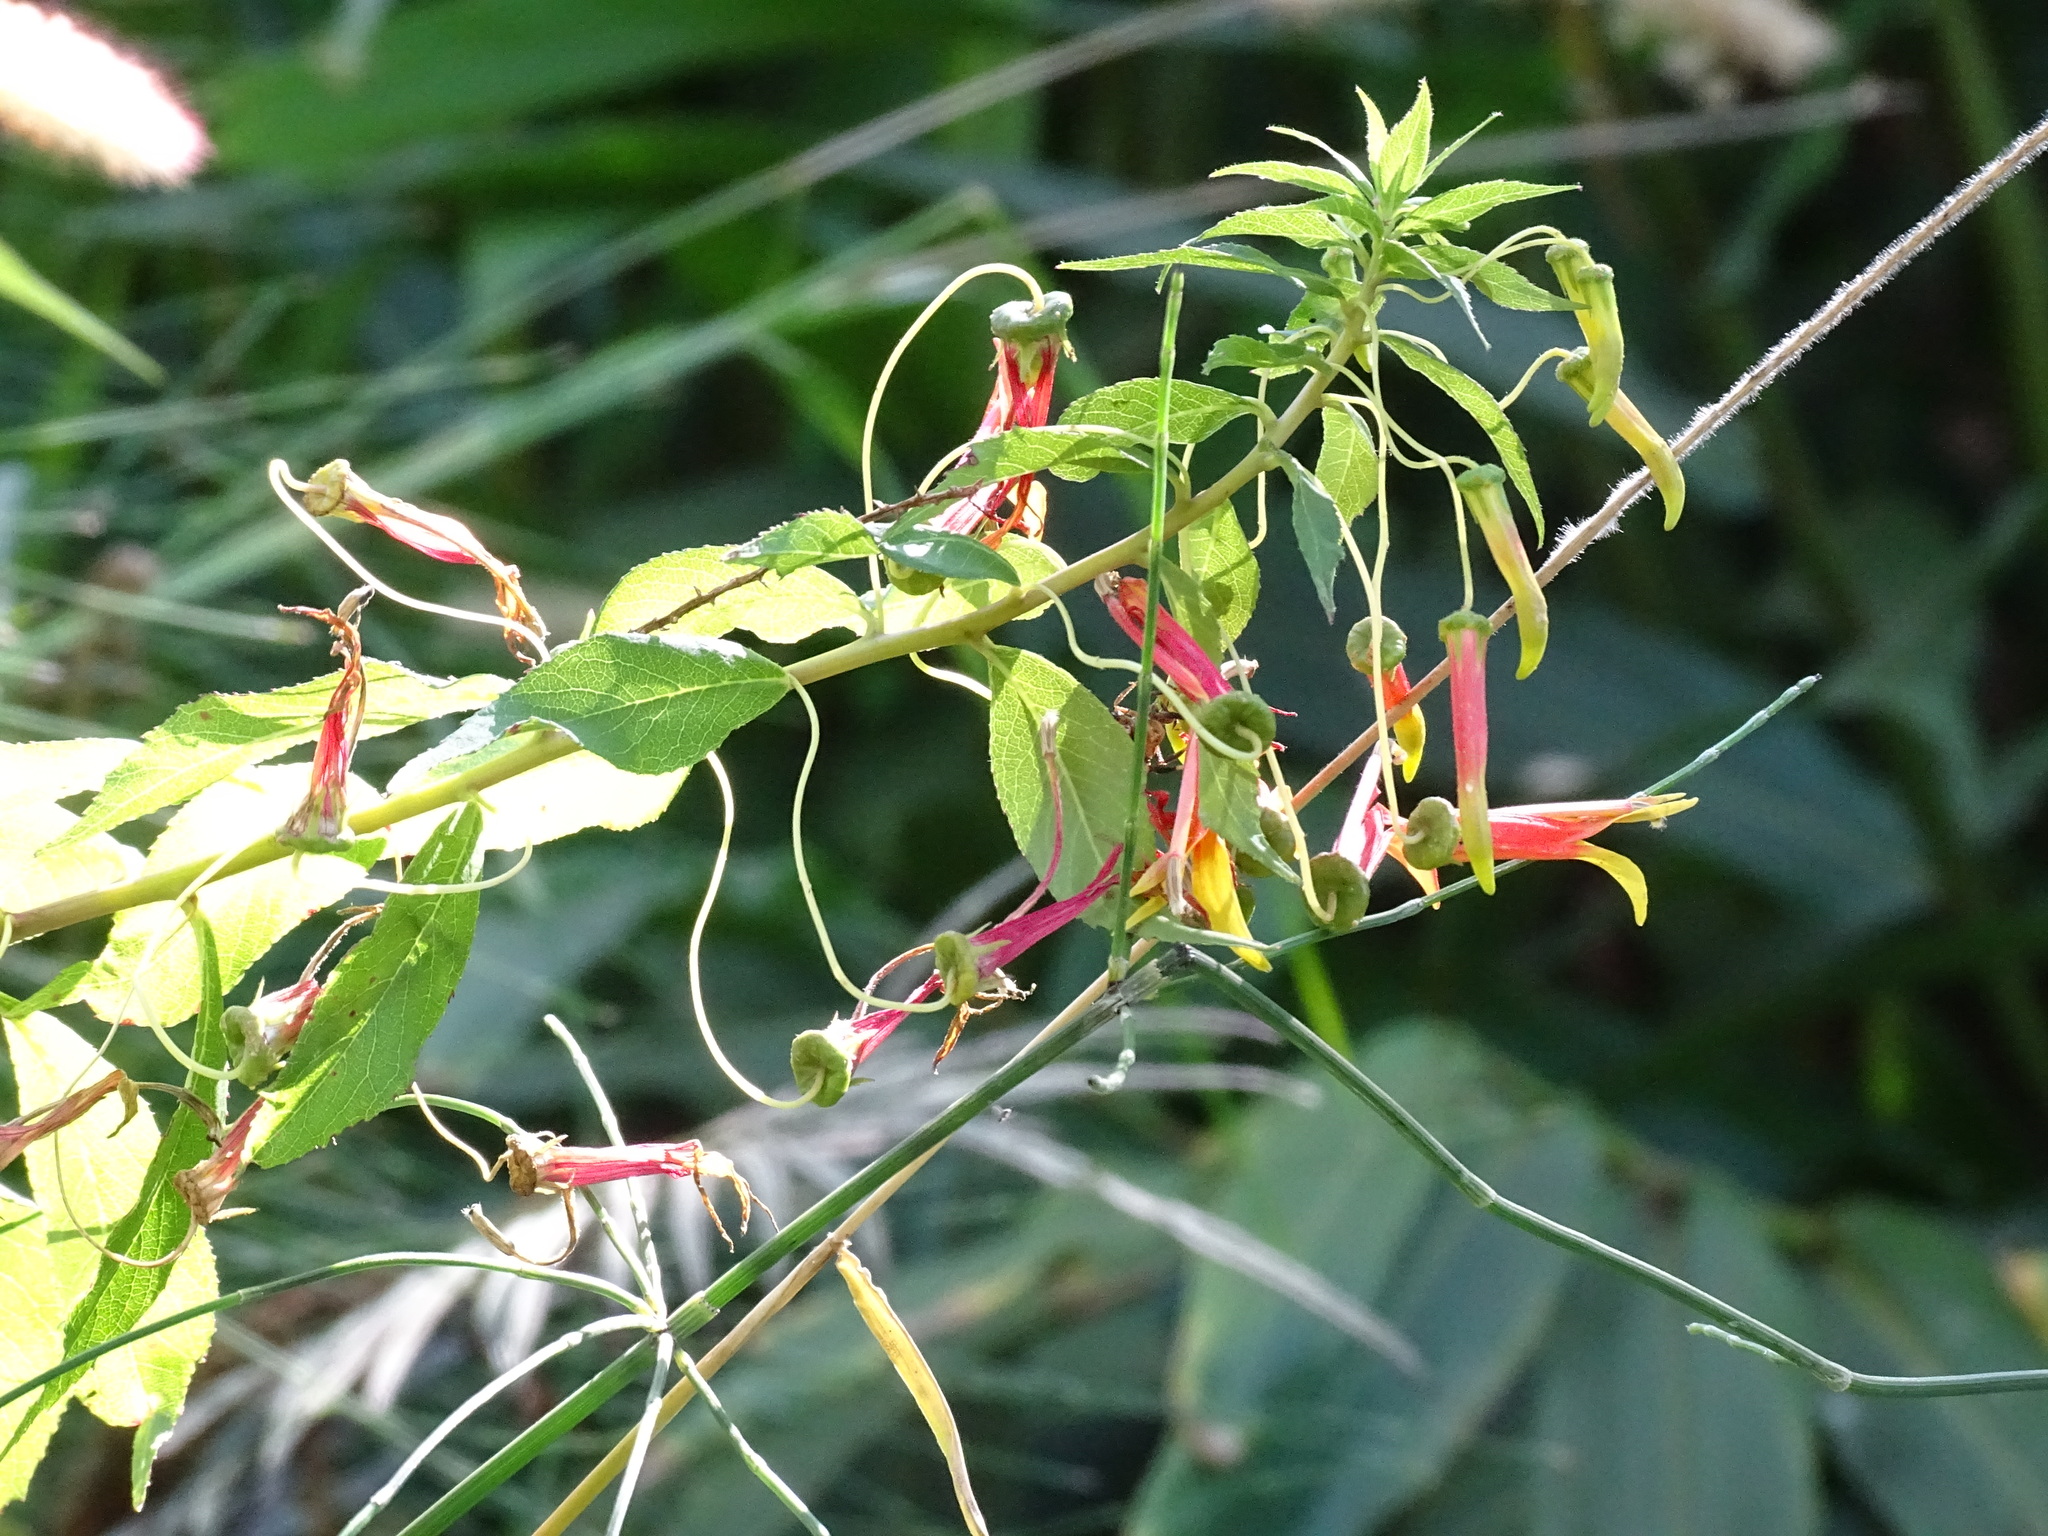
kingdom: Plantae
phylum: Tracheophyta
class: Magnoliopsida
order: Asterales
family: Campanulaceae
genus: Lobelia
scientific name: Lobelia laxiflora
